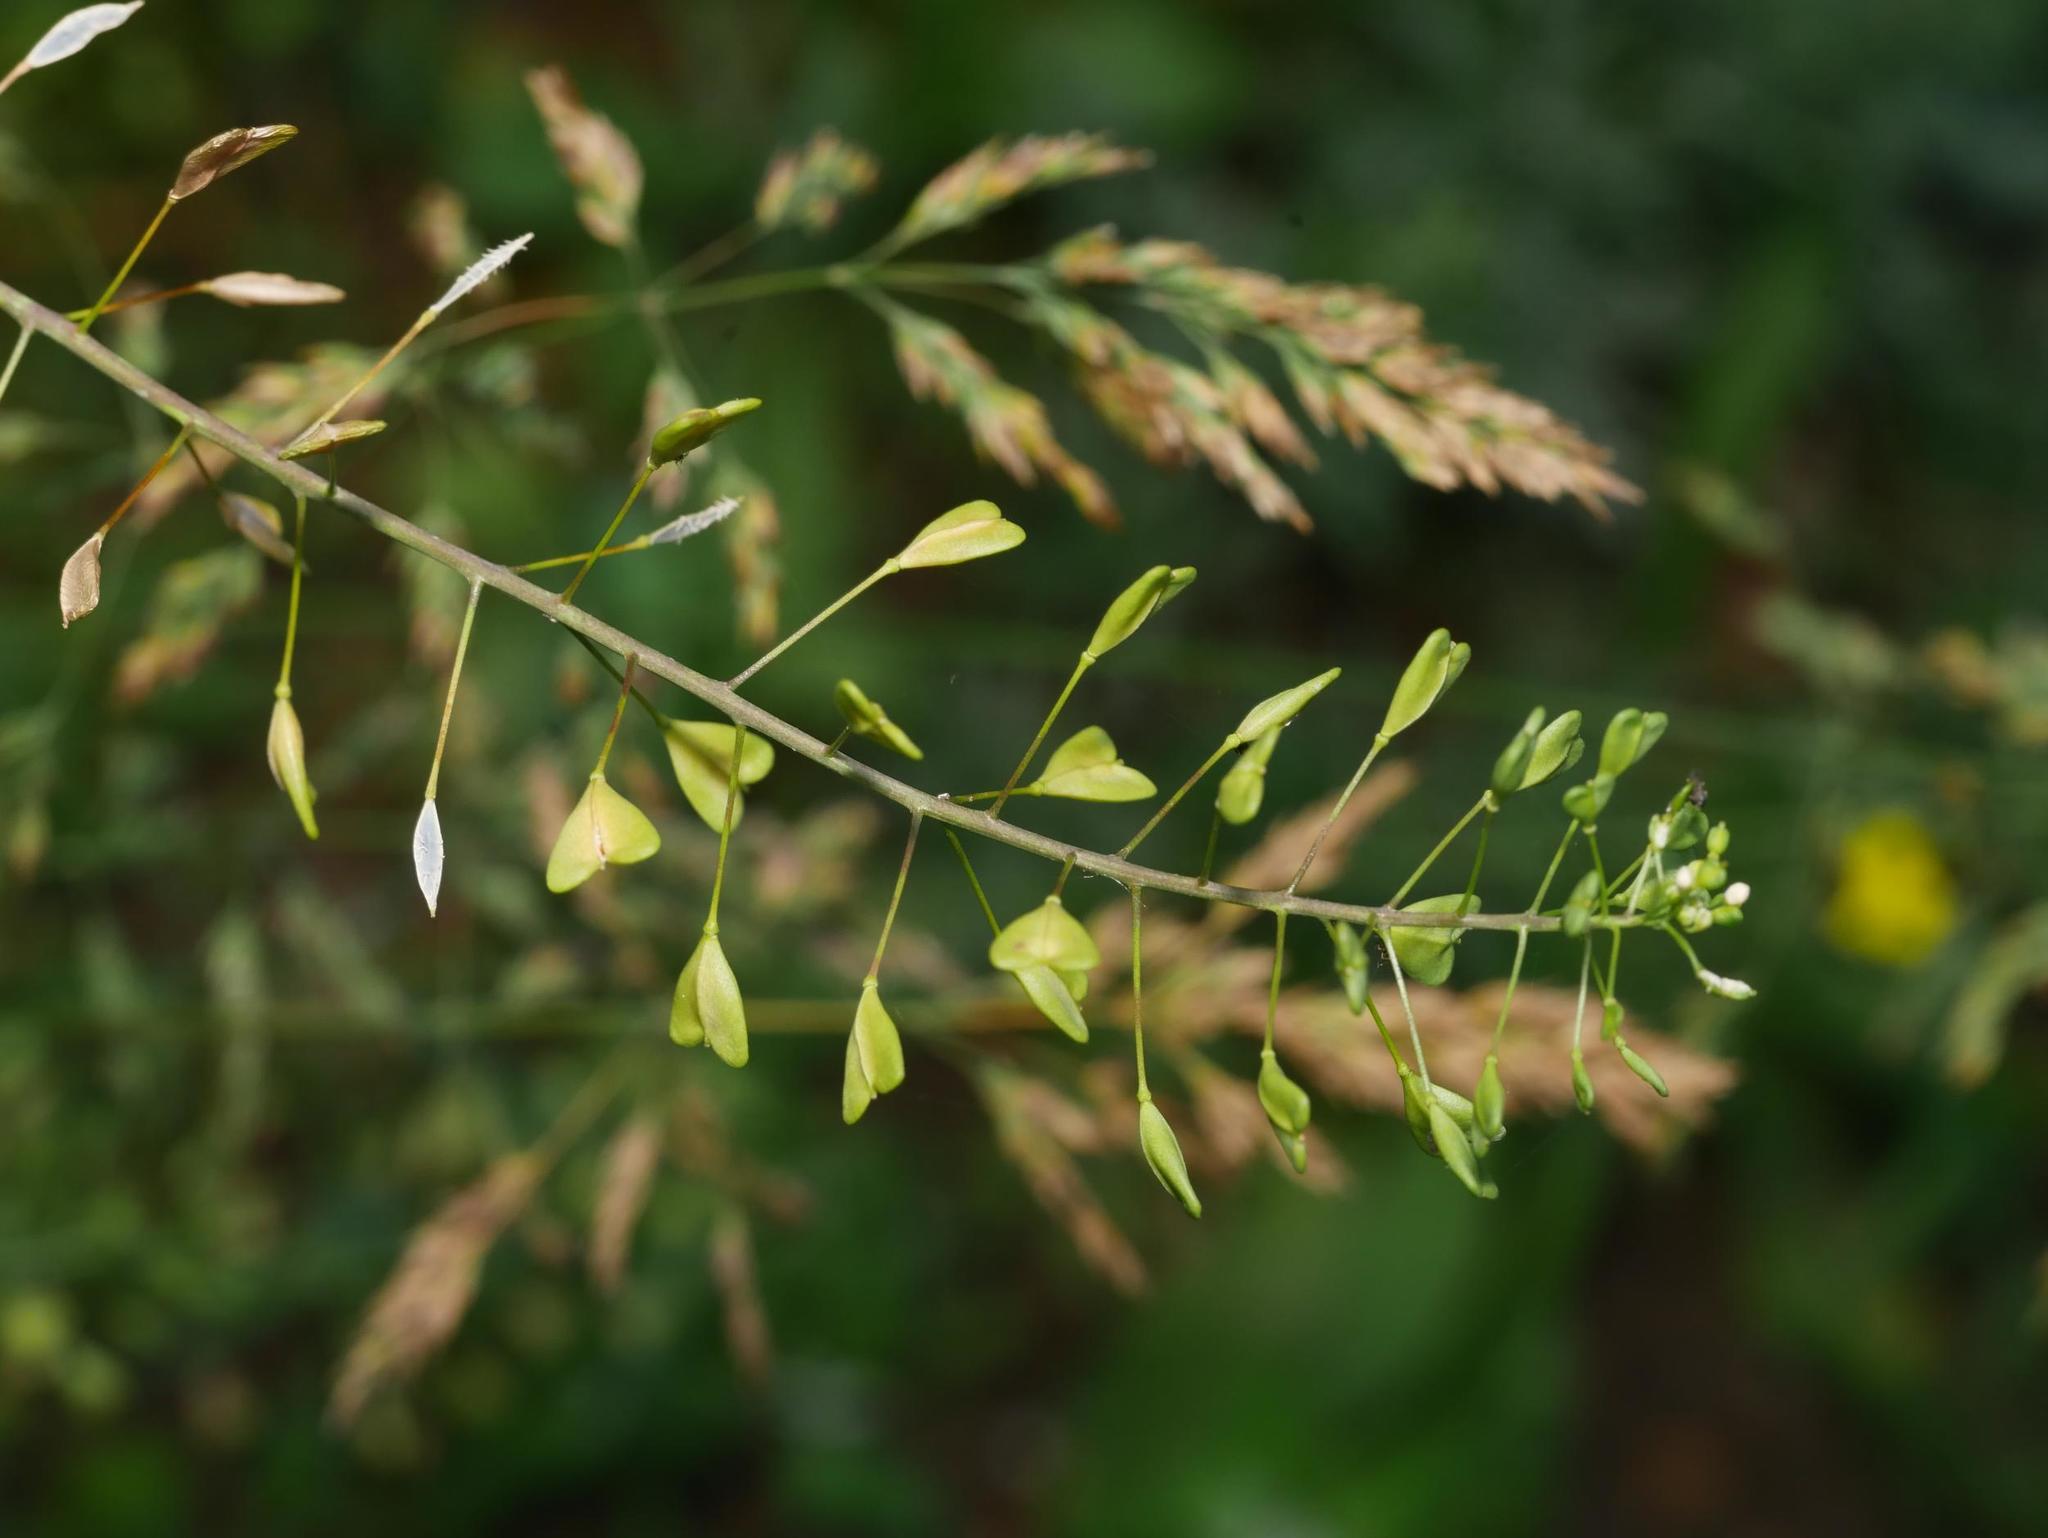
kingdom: Plantae
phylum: Tracheophyta
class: Magnoliopsida
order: Brassicales
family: Brassicaceae
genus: Capsella
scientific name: Capsella bursa-pastoris
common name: Shepherd's purse
